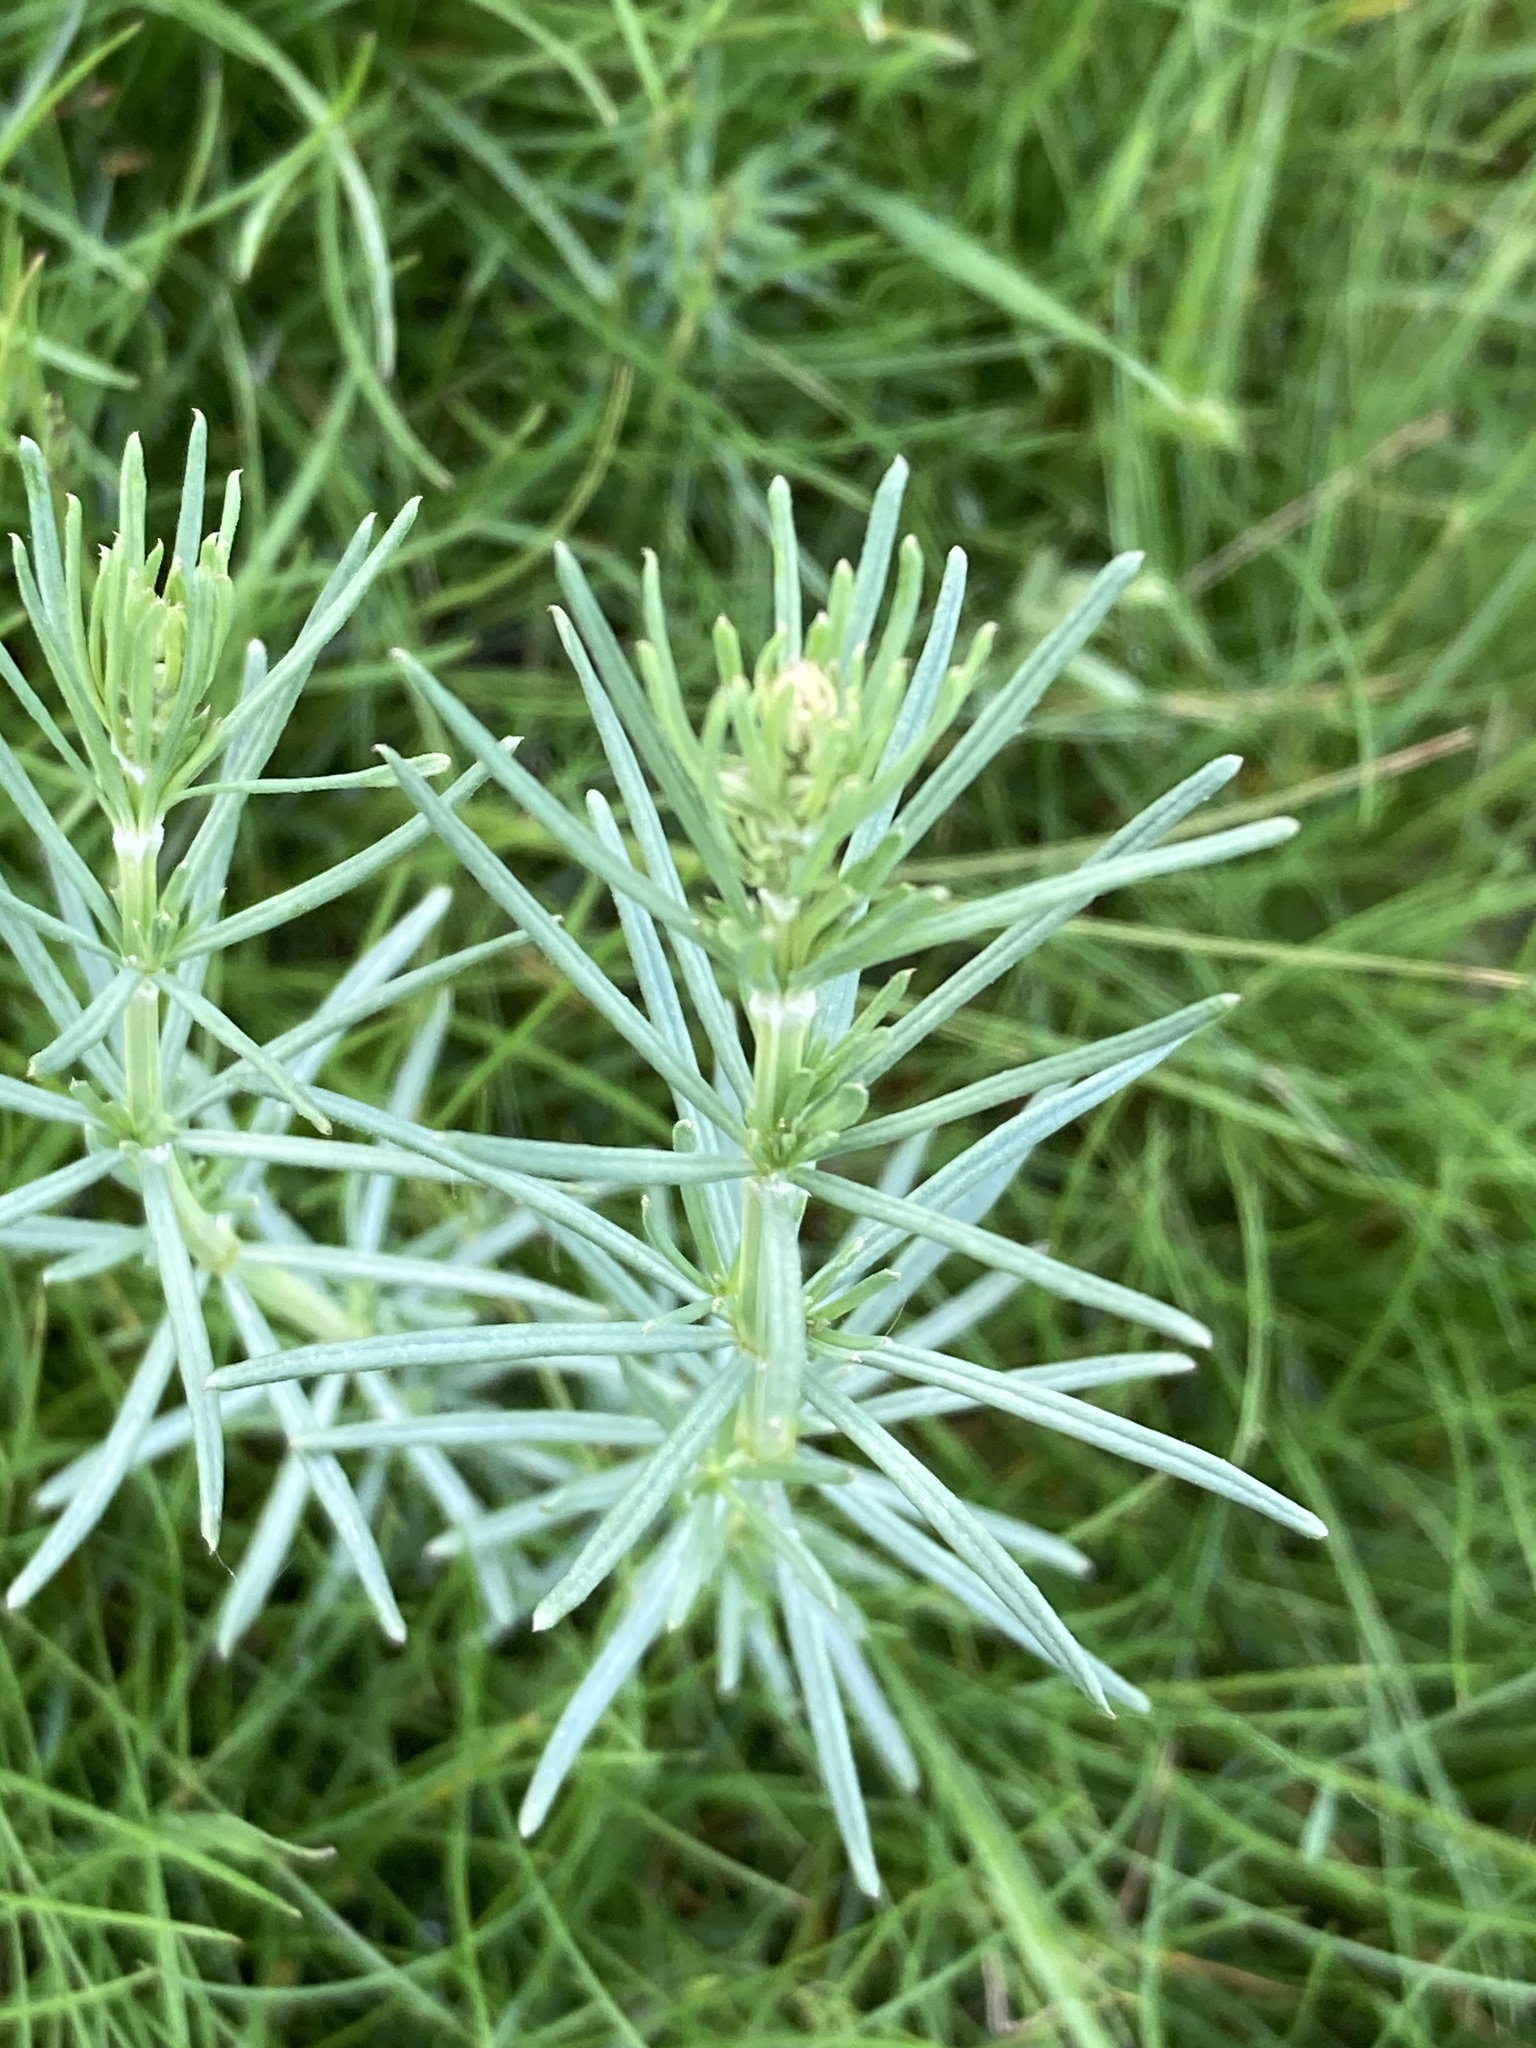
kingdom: Plantae
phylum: Tracheophyta
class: Magnoliopsida
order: Gentianales
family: Rubiaceae
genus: Galium
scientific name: Galium verum
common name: Lady's bedstraw
